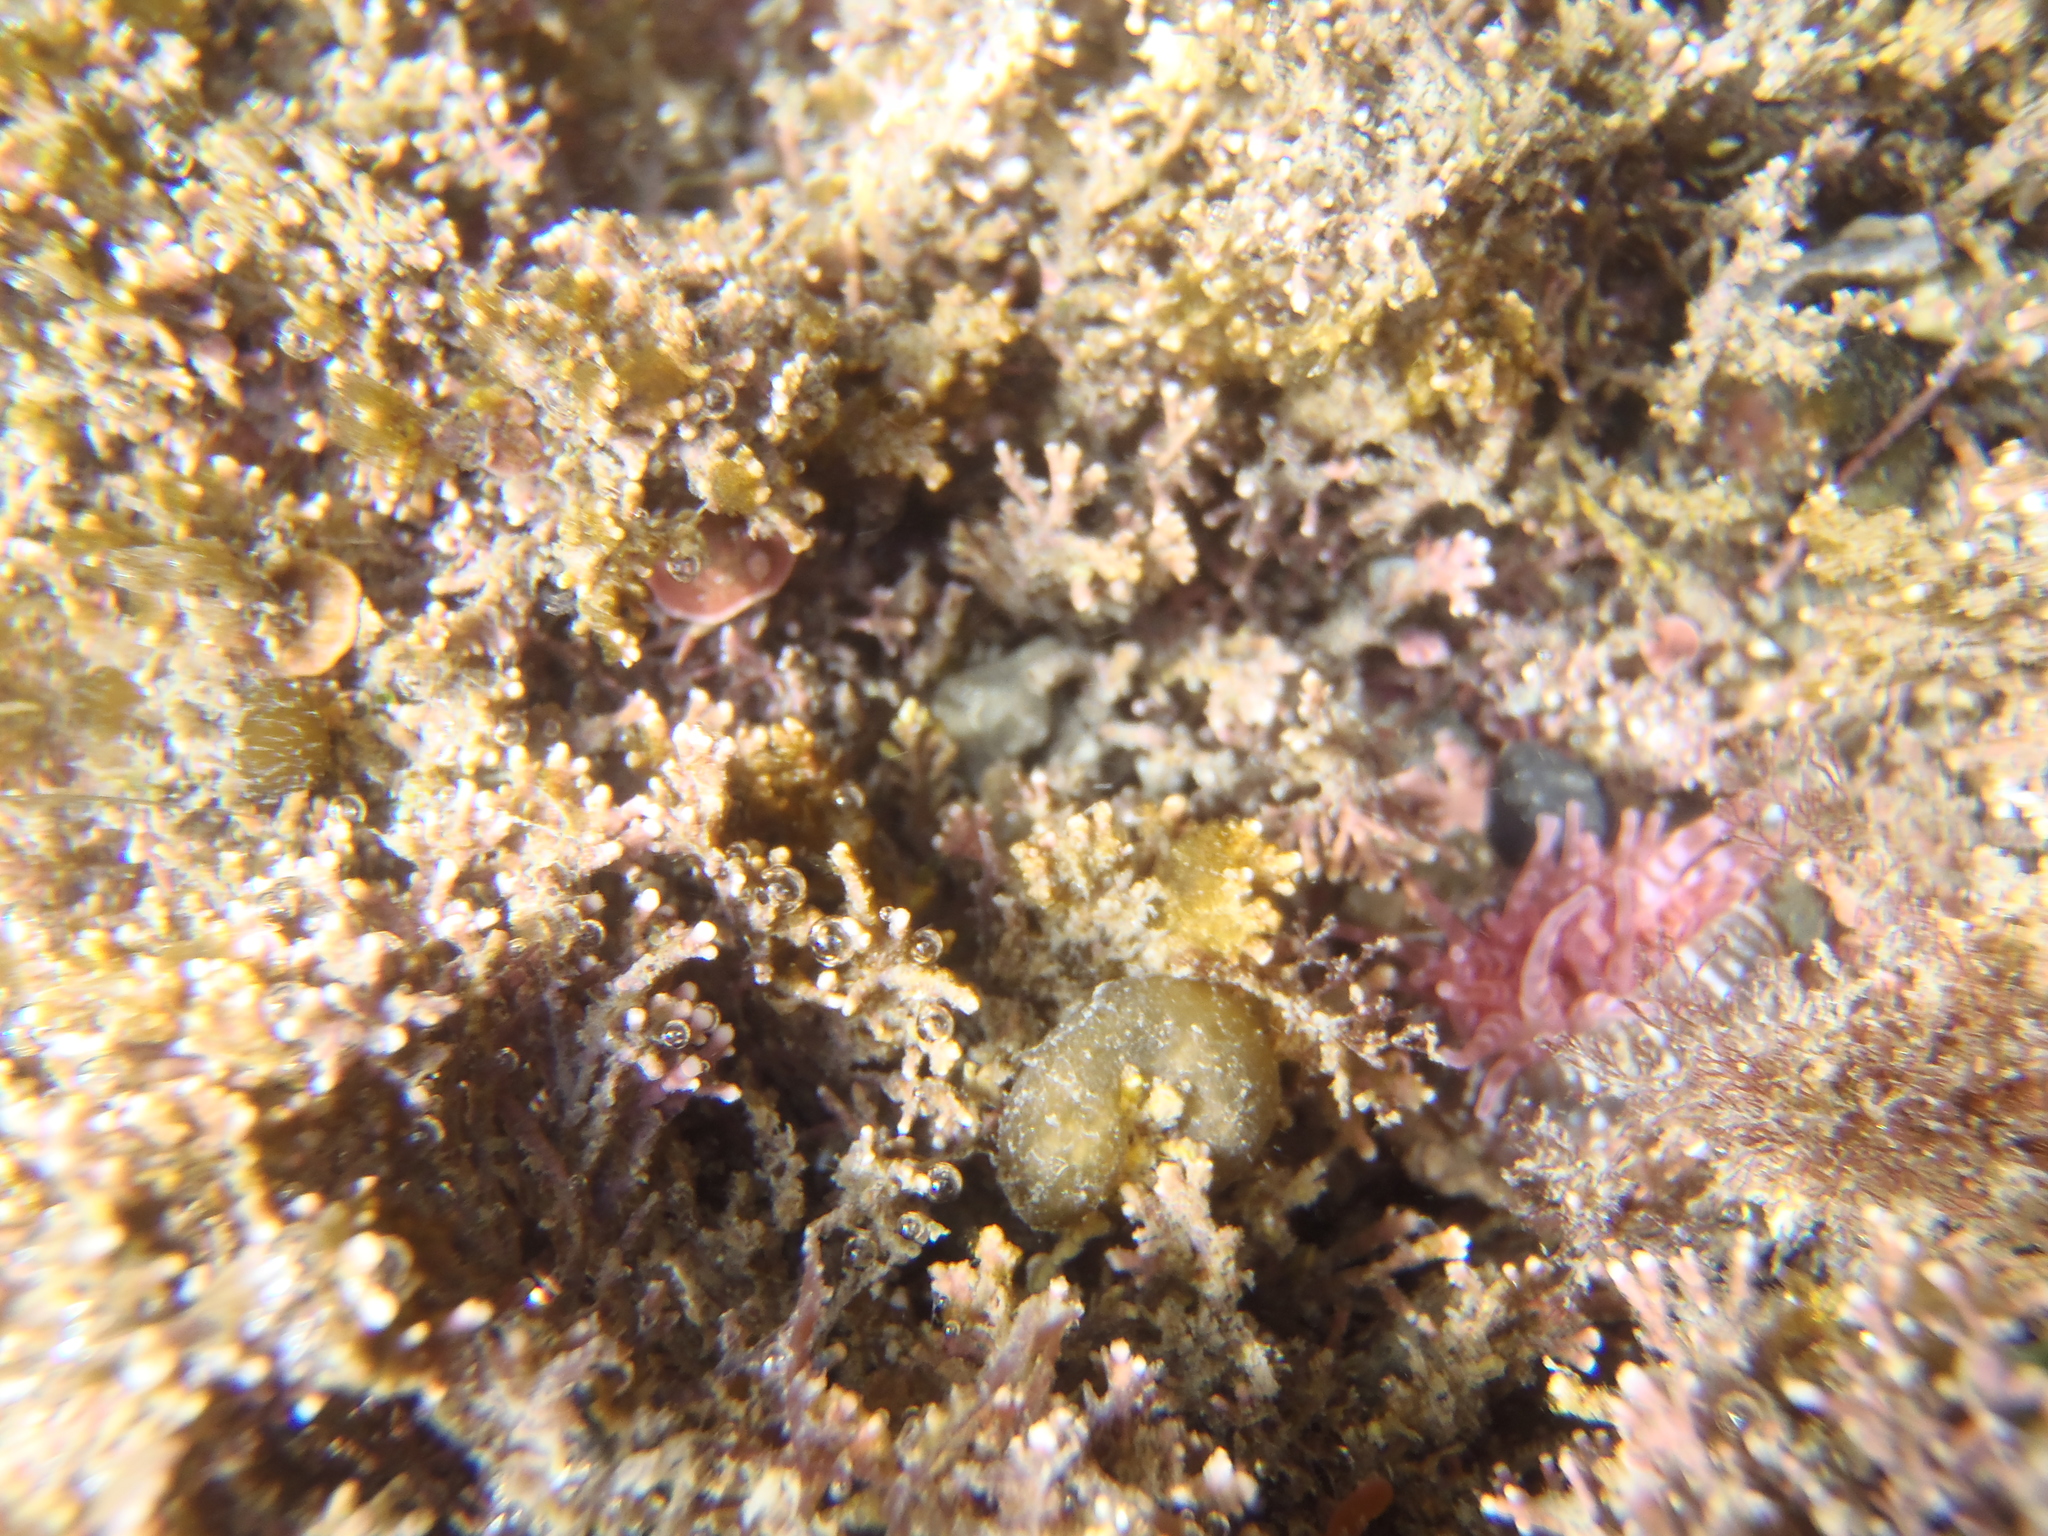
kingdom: Animalia
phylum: Cnidaria
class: Anthozoa
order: Actiniaria
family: Actiniidae
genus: Anthopleura
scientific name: Anthopleura rosea
